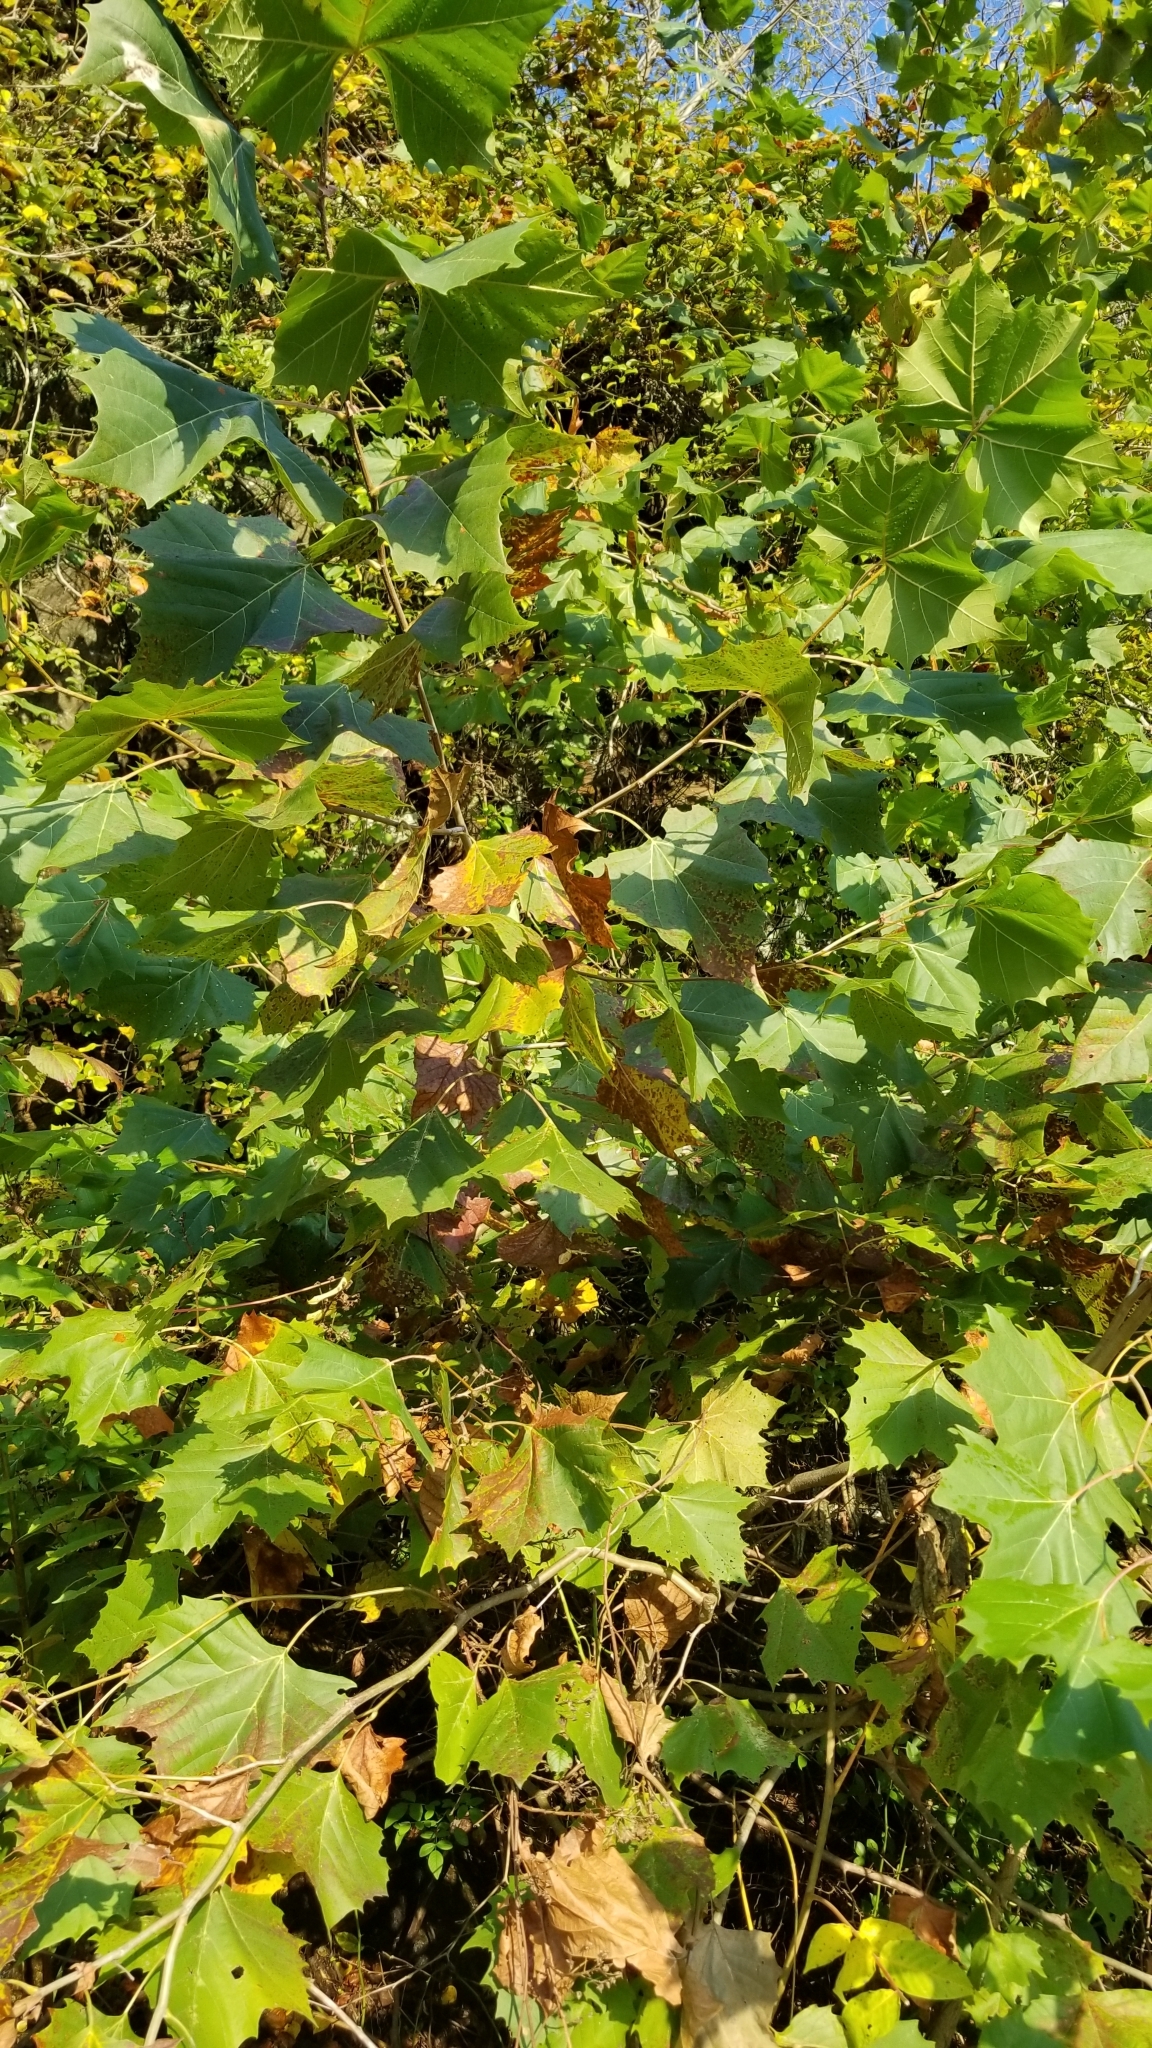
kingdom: Plantae
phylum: Tracheophyta
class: Magnoliopsida
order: Proteales
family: Platanaceae
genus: Platanus
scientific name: Platanus occidentalis
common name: American sycamore
